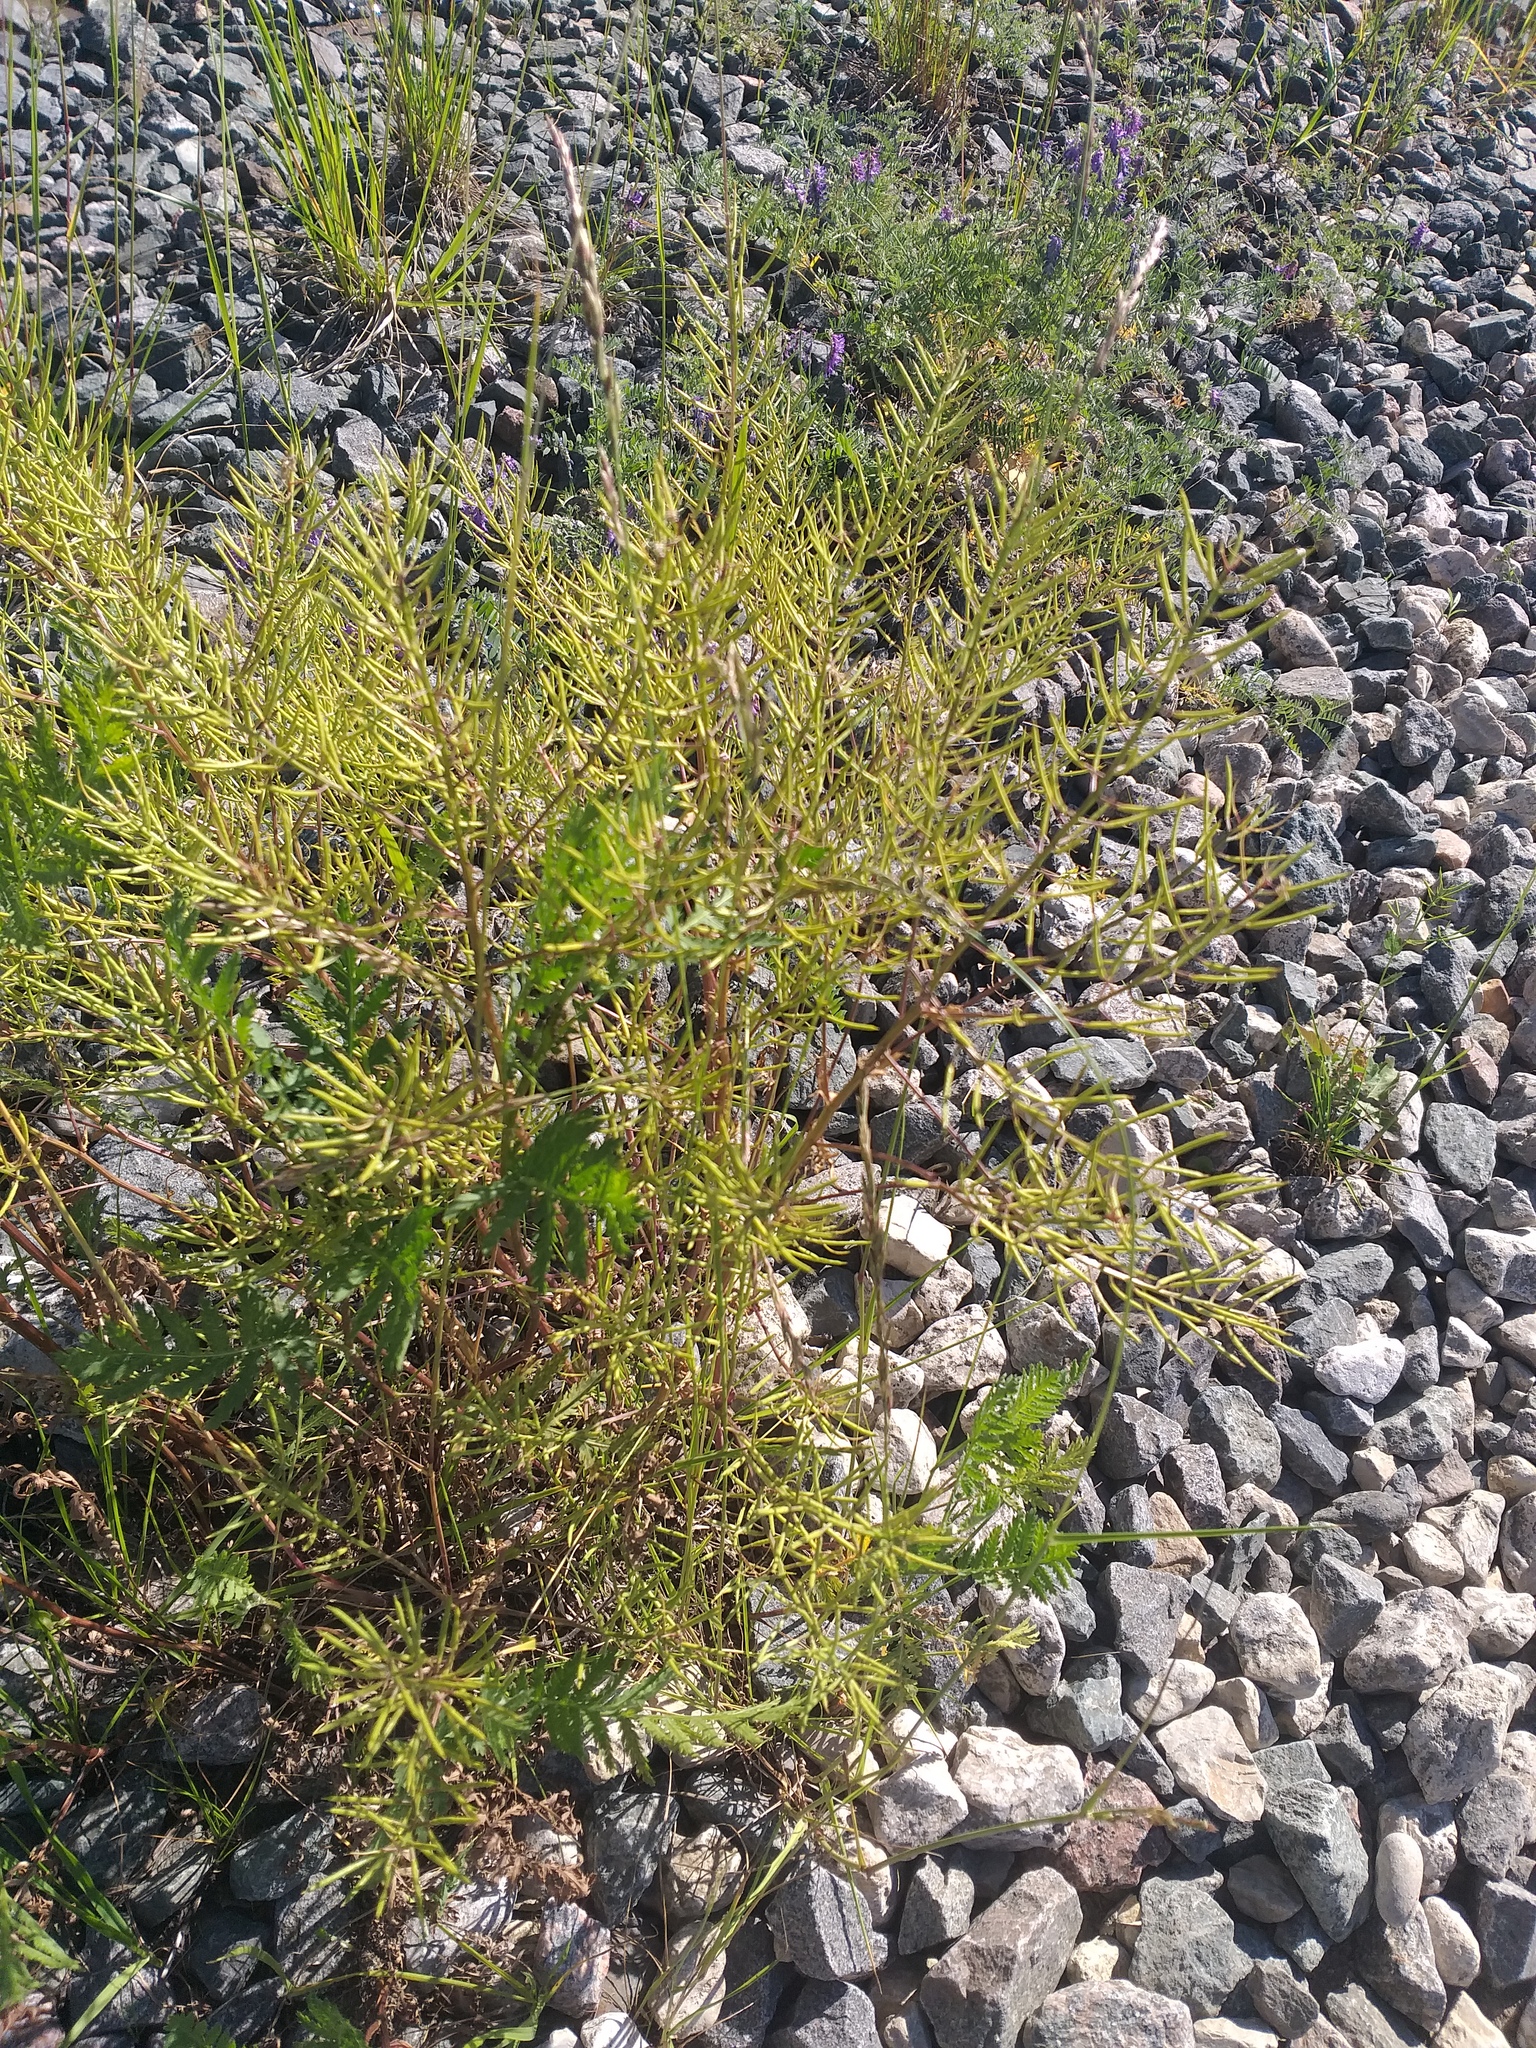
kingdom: Plantae
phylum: Tracheophyta
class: Magnoliopsida
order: Brassicales
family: Brassicaceae
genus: Barbarea
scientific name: Barbarea vulgaris
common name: Cressy-greens
